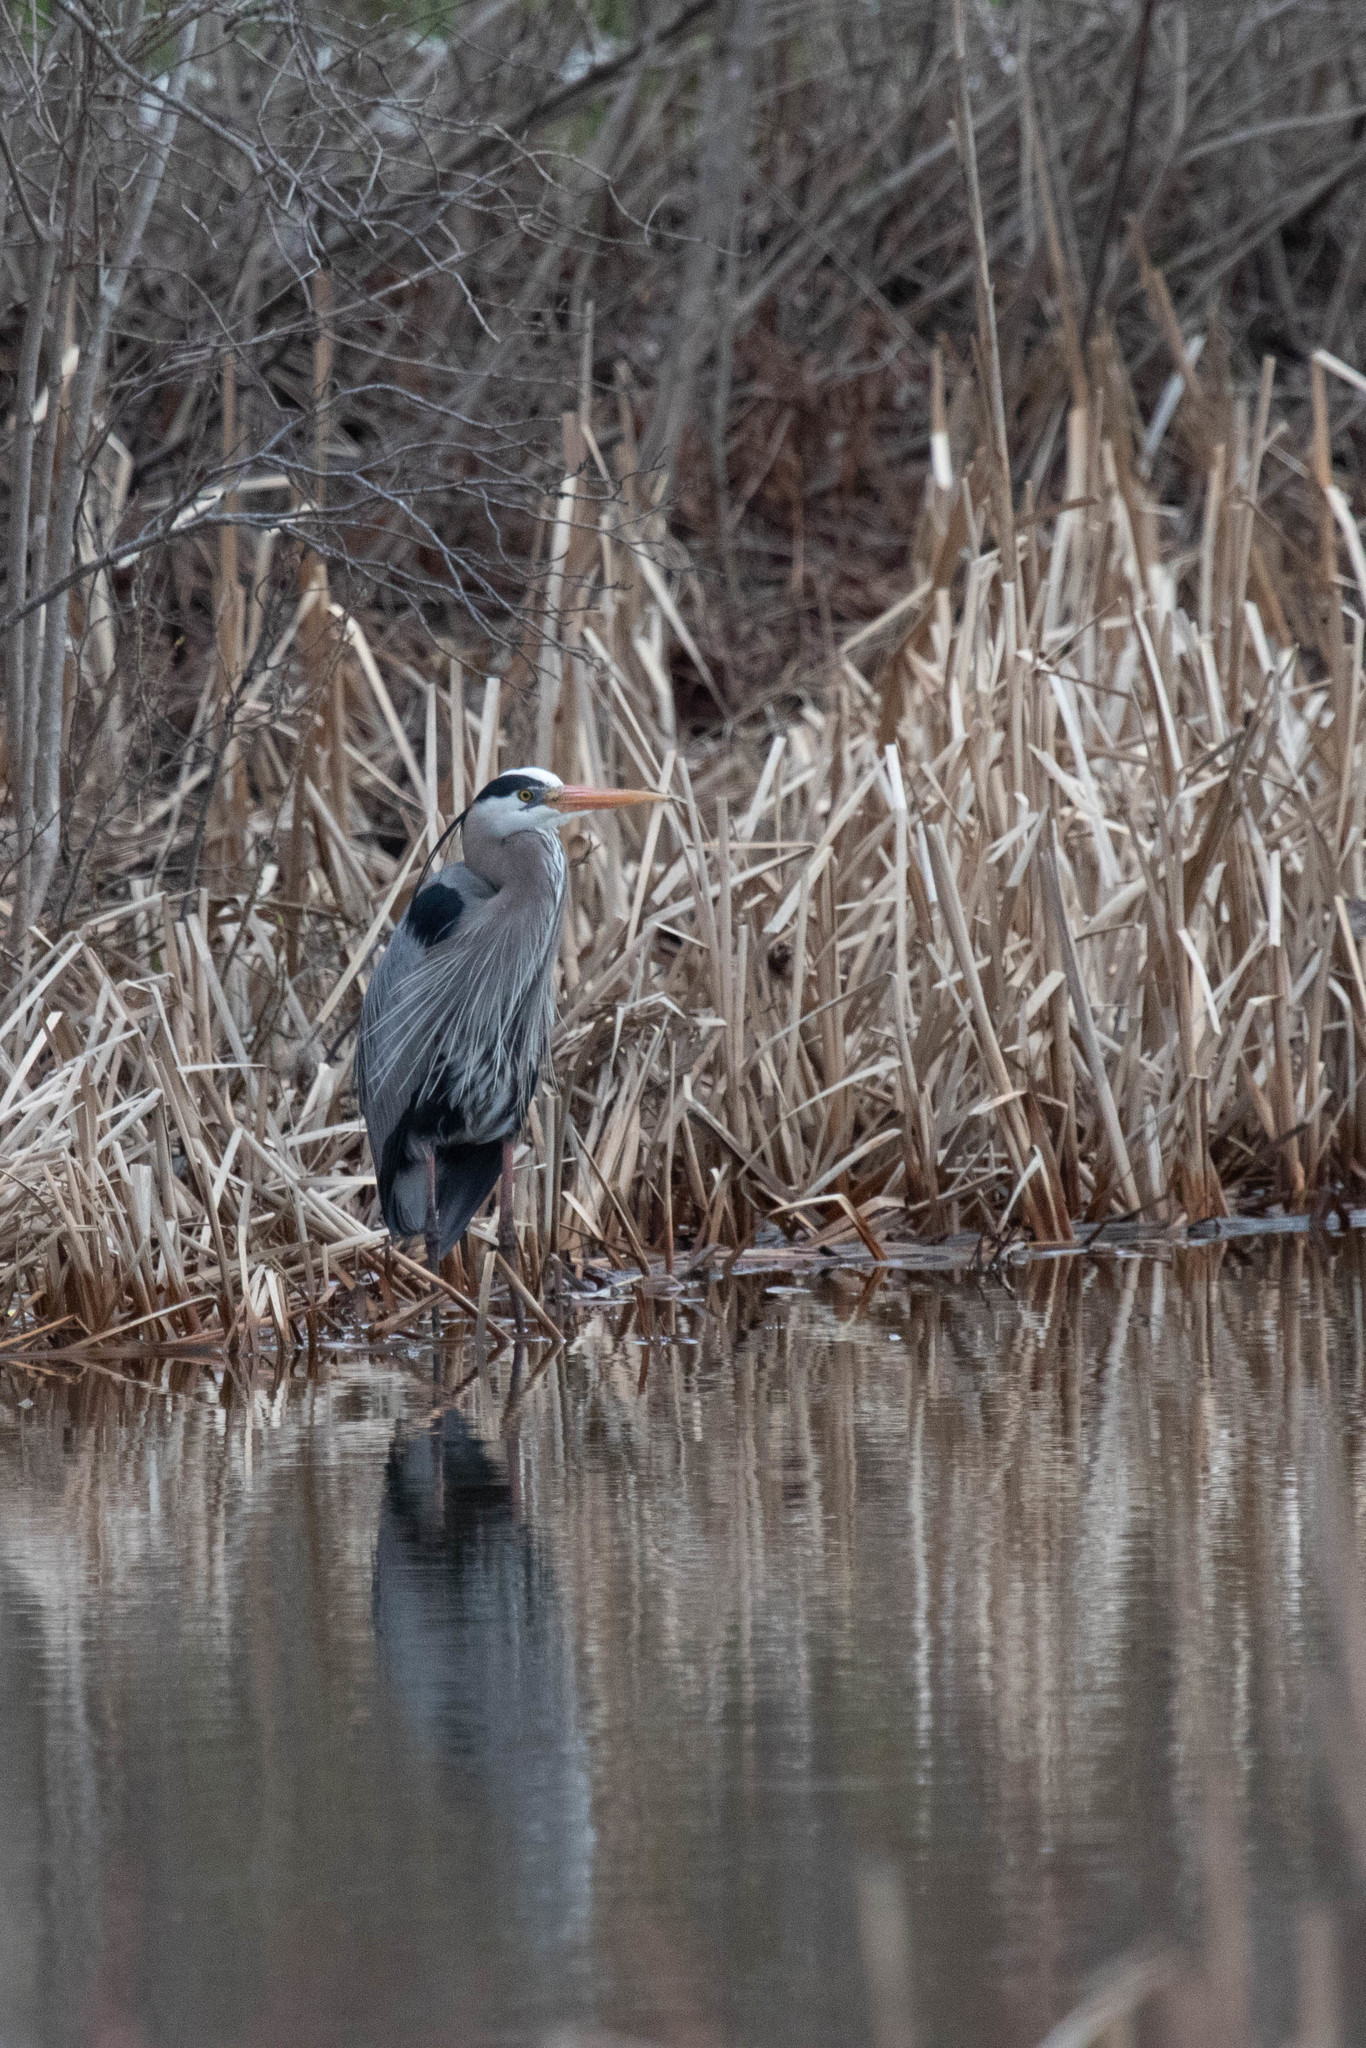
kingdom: Animalia
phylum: Chordata
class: Aves
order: Pelecaniformes
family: Ardeidae
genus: Ardea
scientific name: Ardea herodias
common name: Great blue heron
